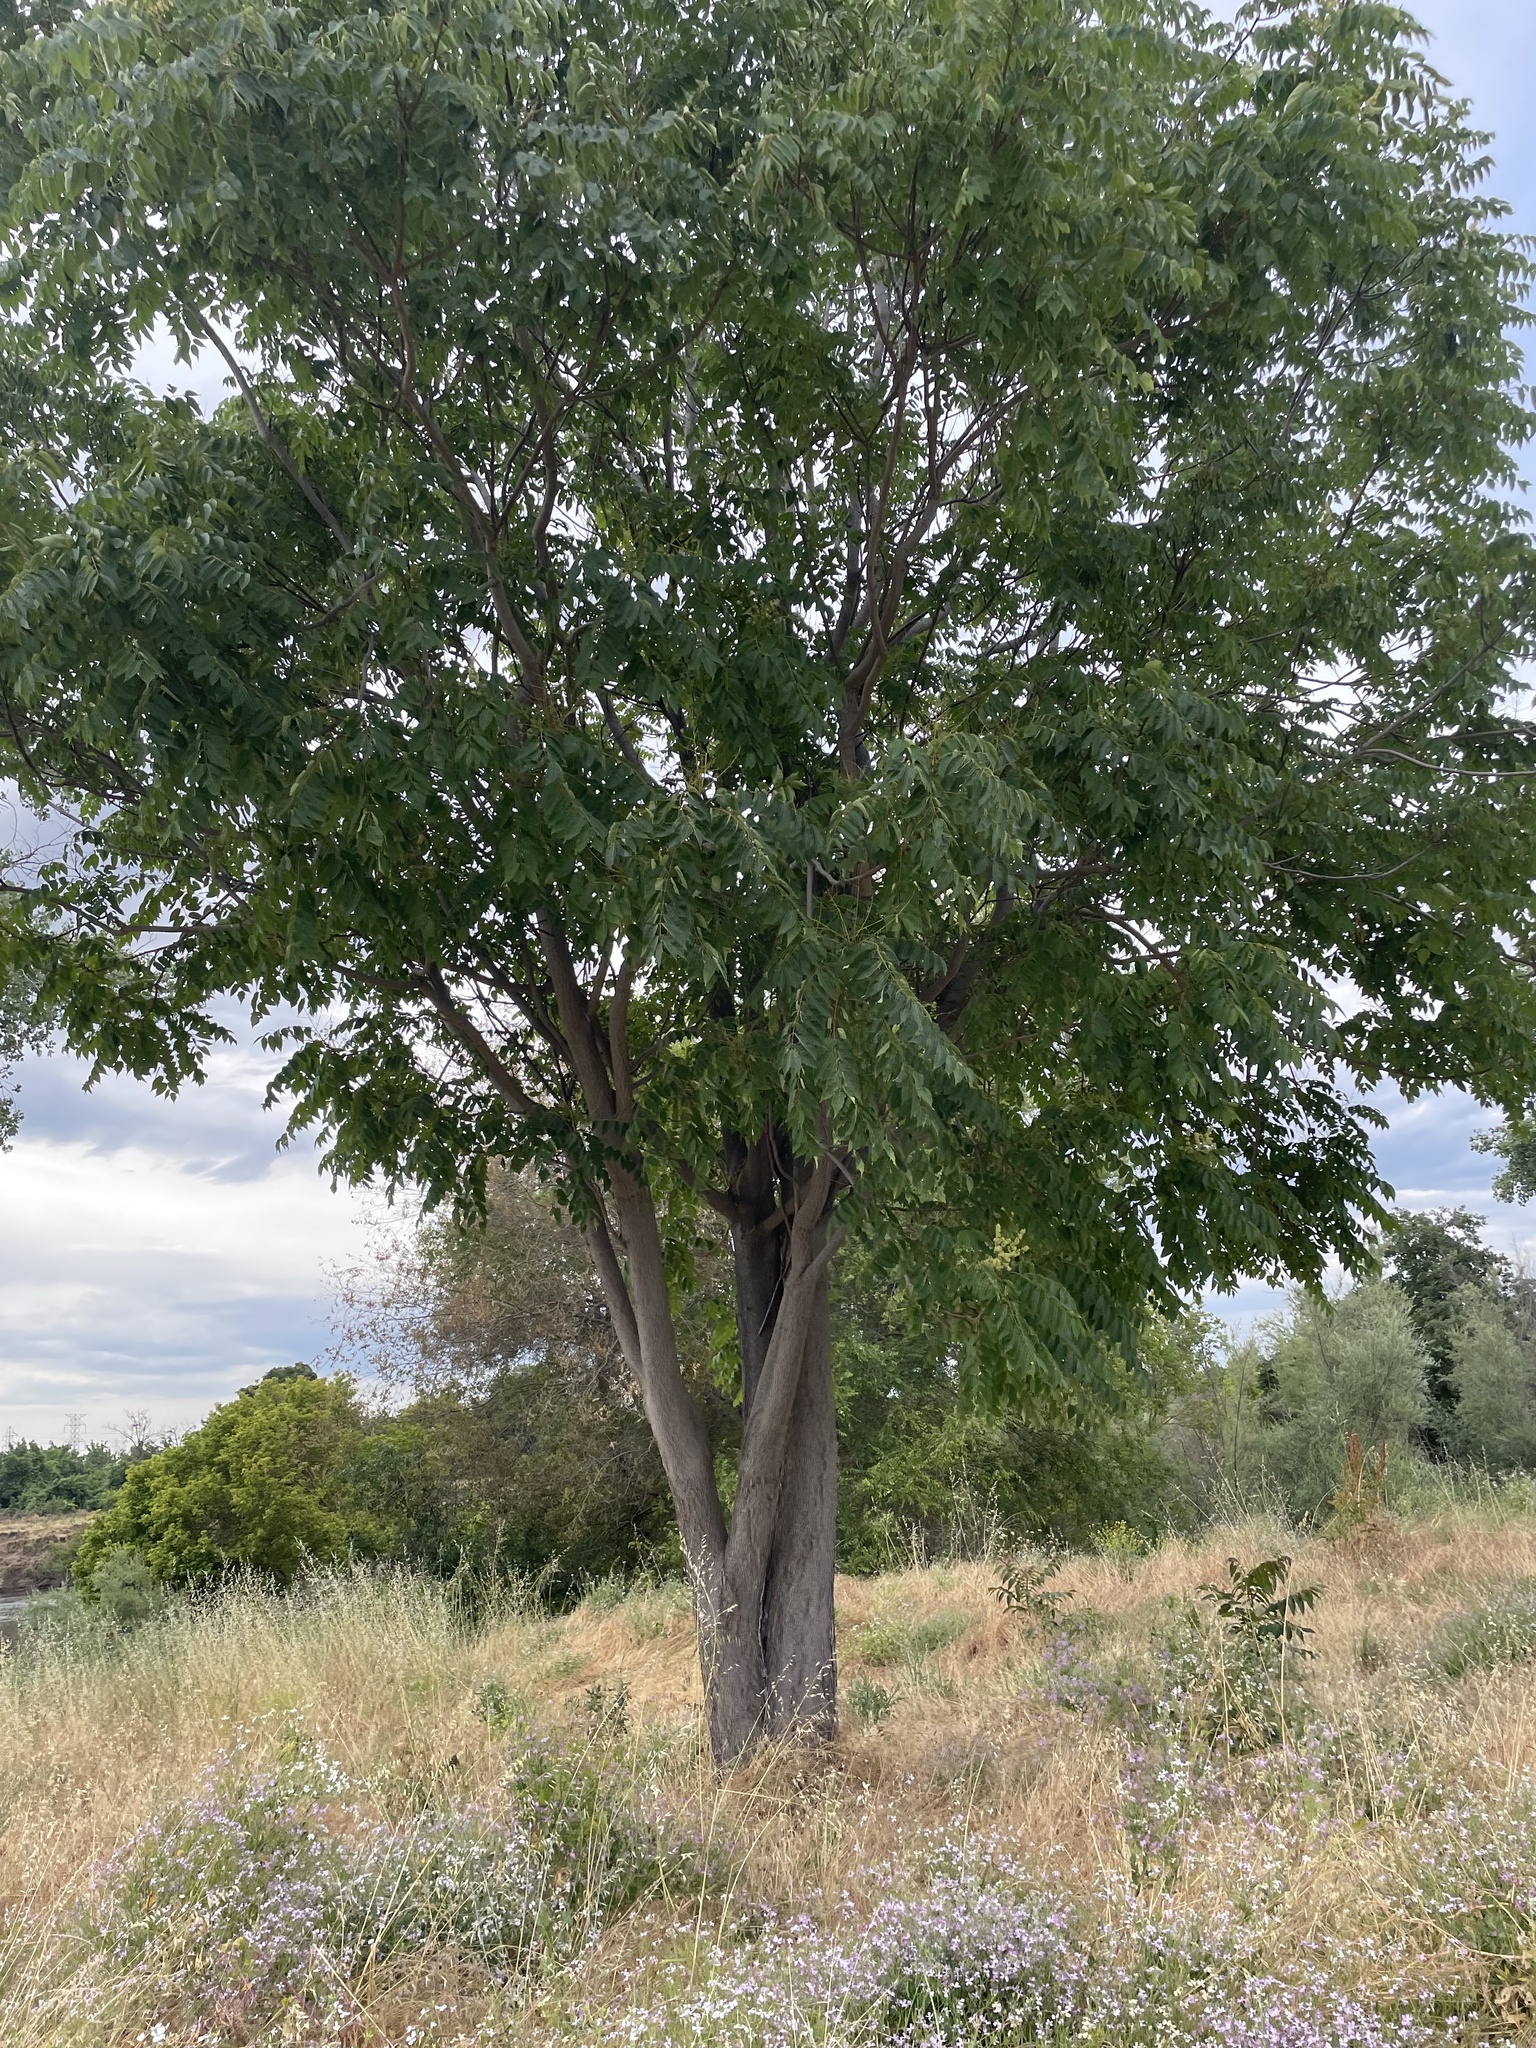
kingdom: Plantae
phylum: Tracheophyta
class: Magnoliopsida
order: Sapindales
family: Simaroubaceae
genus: Ailanthus
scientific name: Ailanthus altissima
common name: Tree-of-heaven
